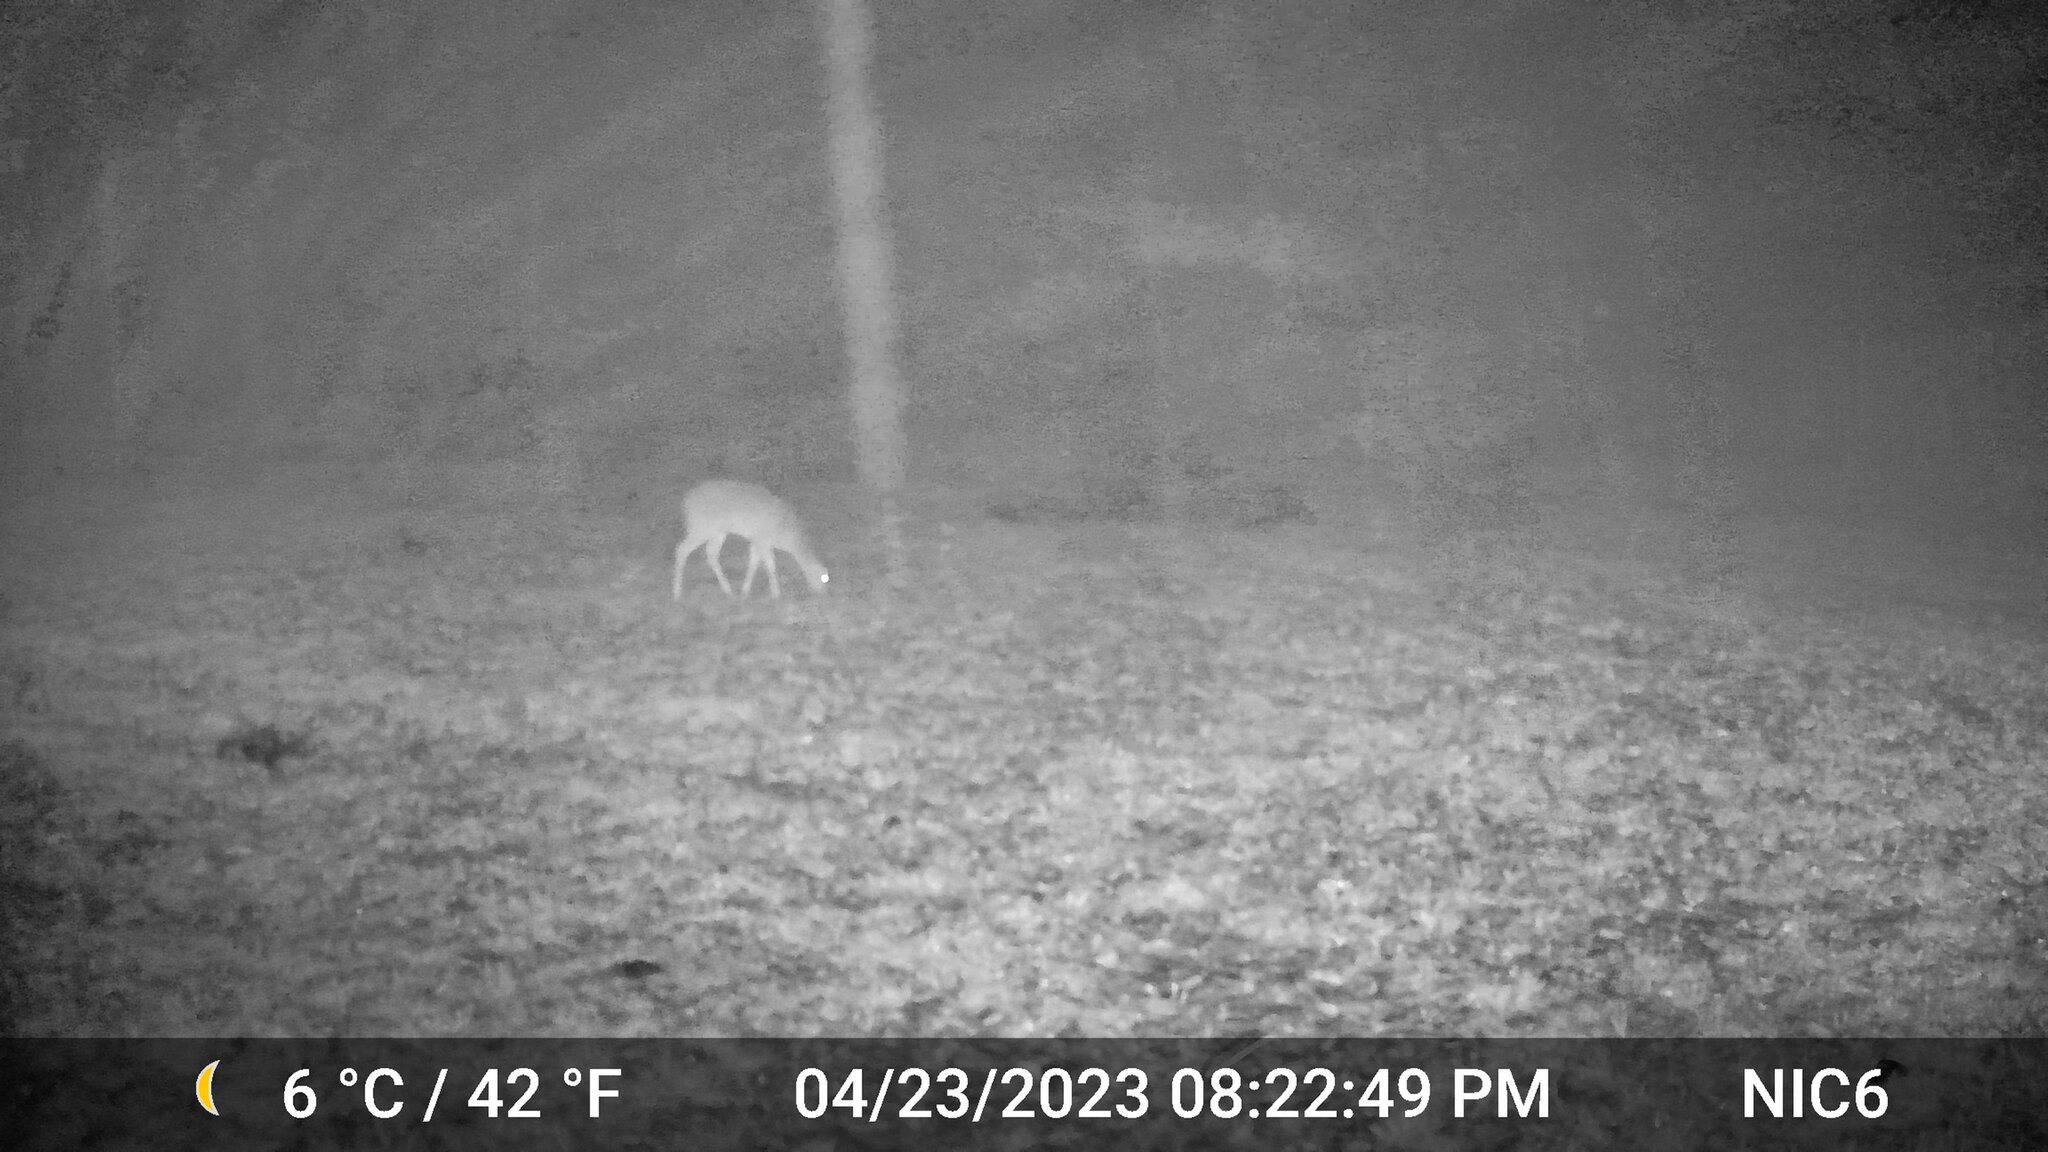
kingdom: Animalia
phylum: Chordata
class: Mammalia
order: Artiodactyla
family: Cervidae
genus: Odocoileus
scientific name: Odocoileus virginianus
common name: White-tailed deer
